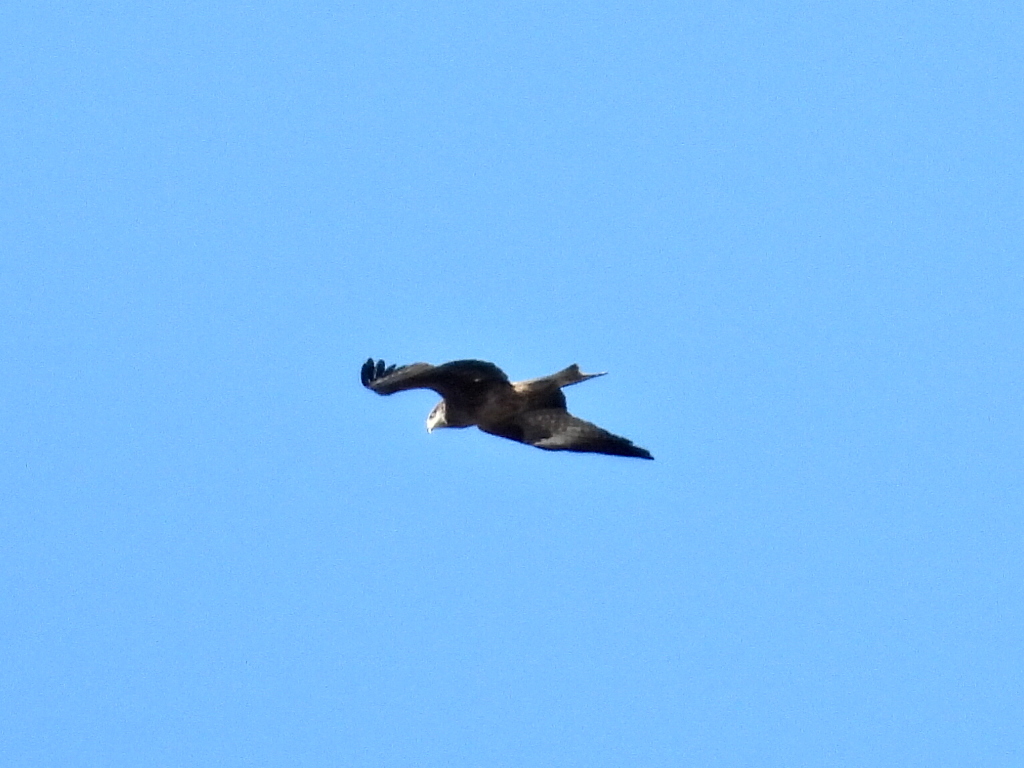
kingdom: Animalia
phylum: Chordata
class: Aves
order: Accipitriformes
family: Accipitridae
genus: Milvus
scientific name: Milvus migrans
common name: Black kite
